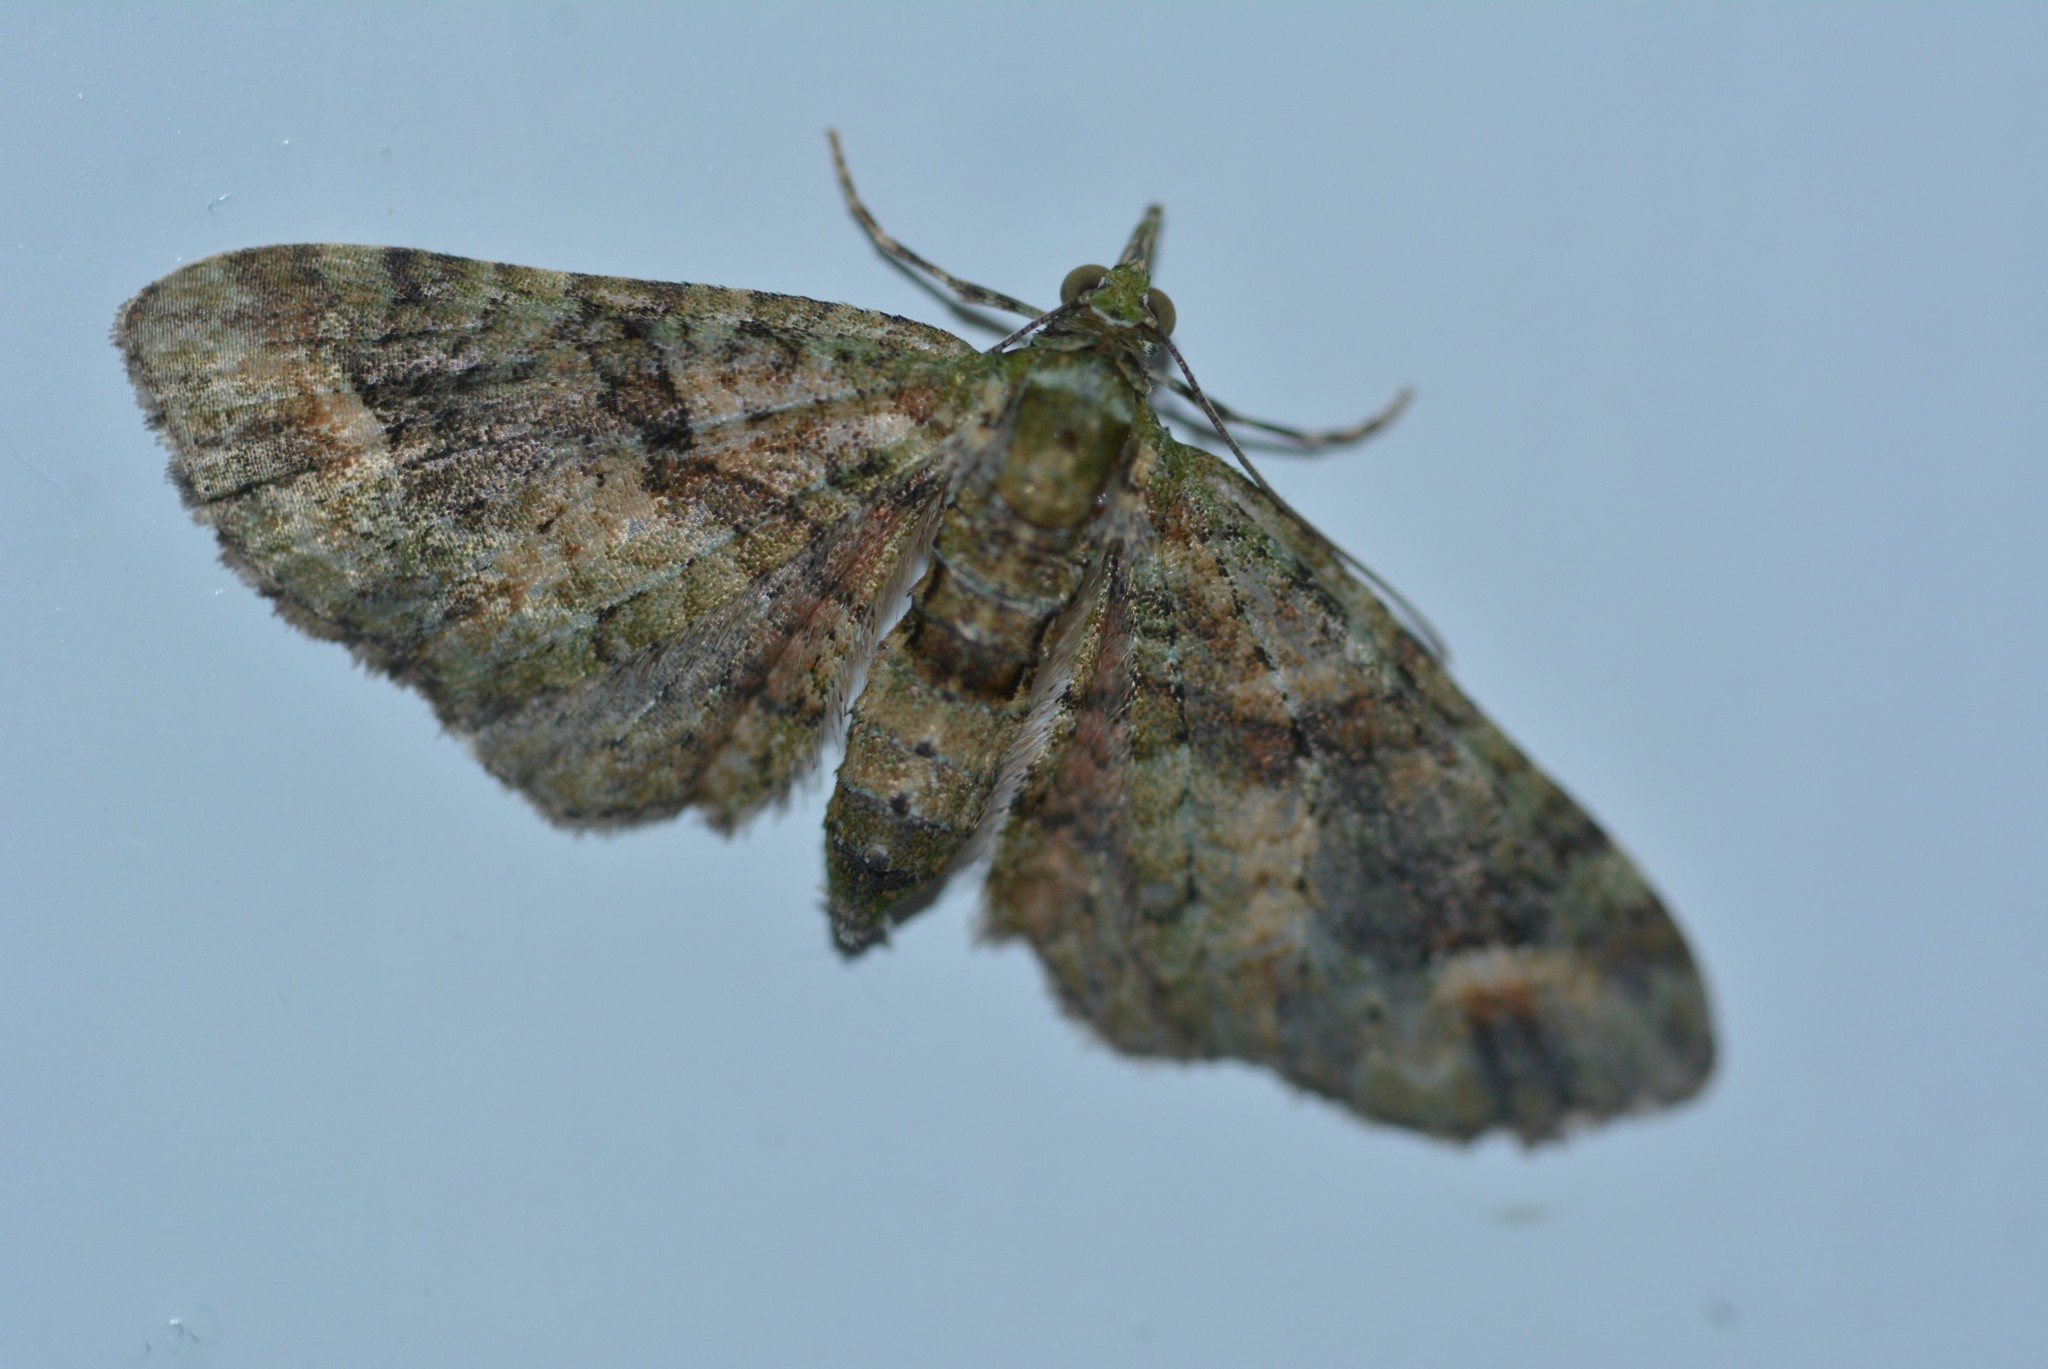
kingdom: Animalia
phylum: Arthropoda
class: Insecta
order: Lepidoptera
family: Geometridae
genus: Idaea
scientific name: Idaea mutanda
